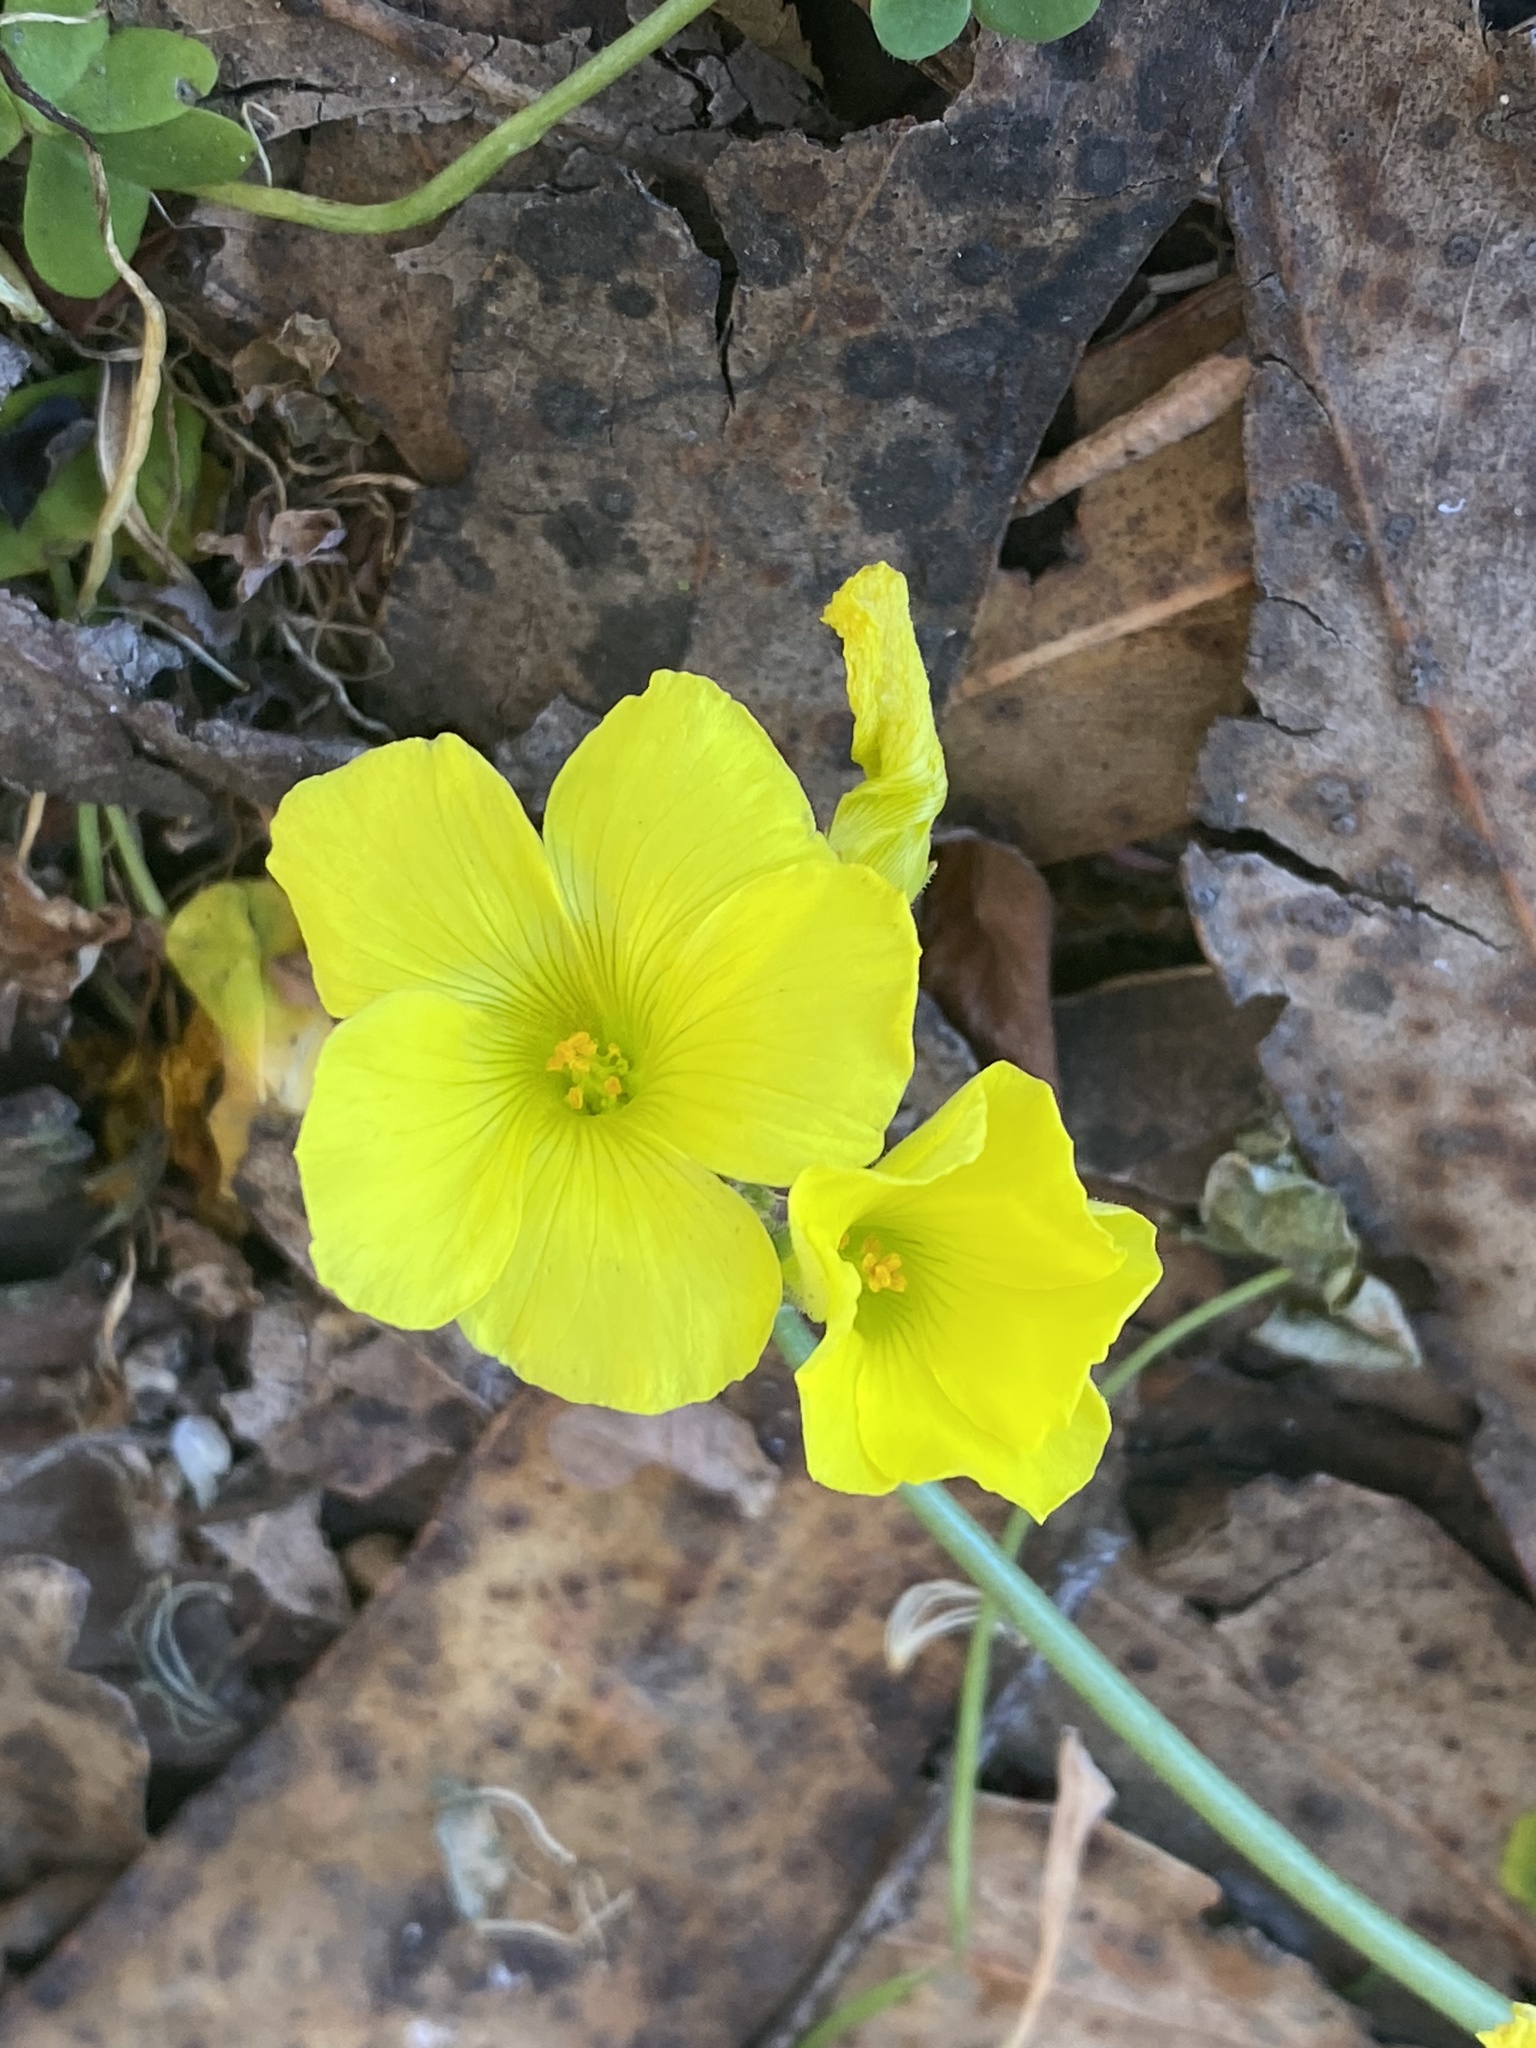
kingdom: Plantae
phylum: Tracheophyta
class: Magnoliopsida
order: Oxalidales
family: Oxalidaceae
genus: Oxalis
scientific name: Oxalis pes-caprae
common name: Bermuda-buttercup
